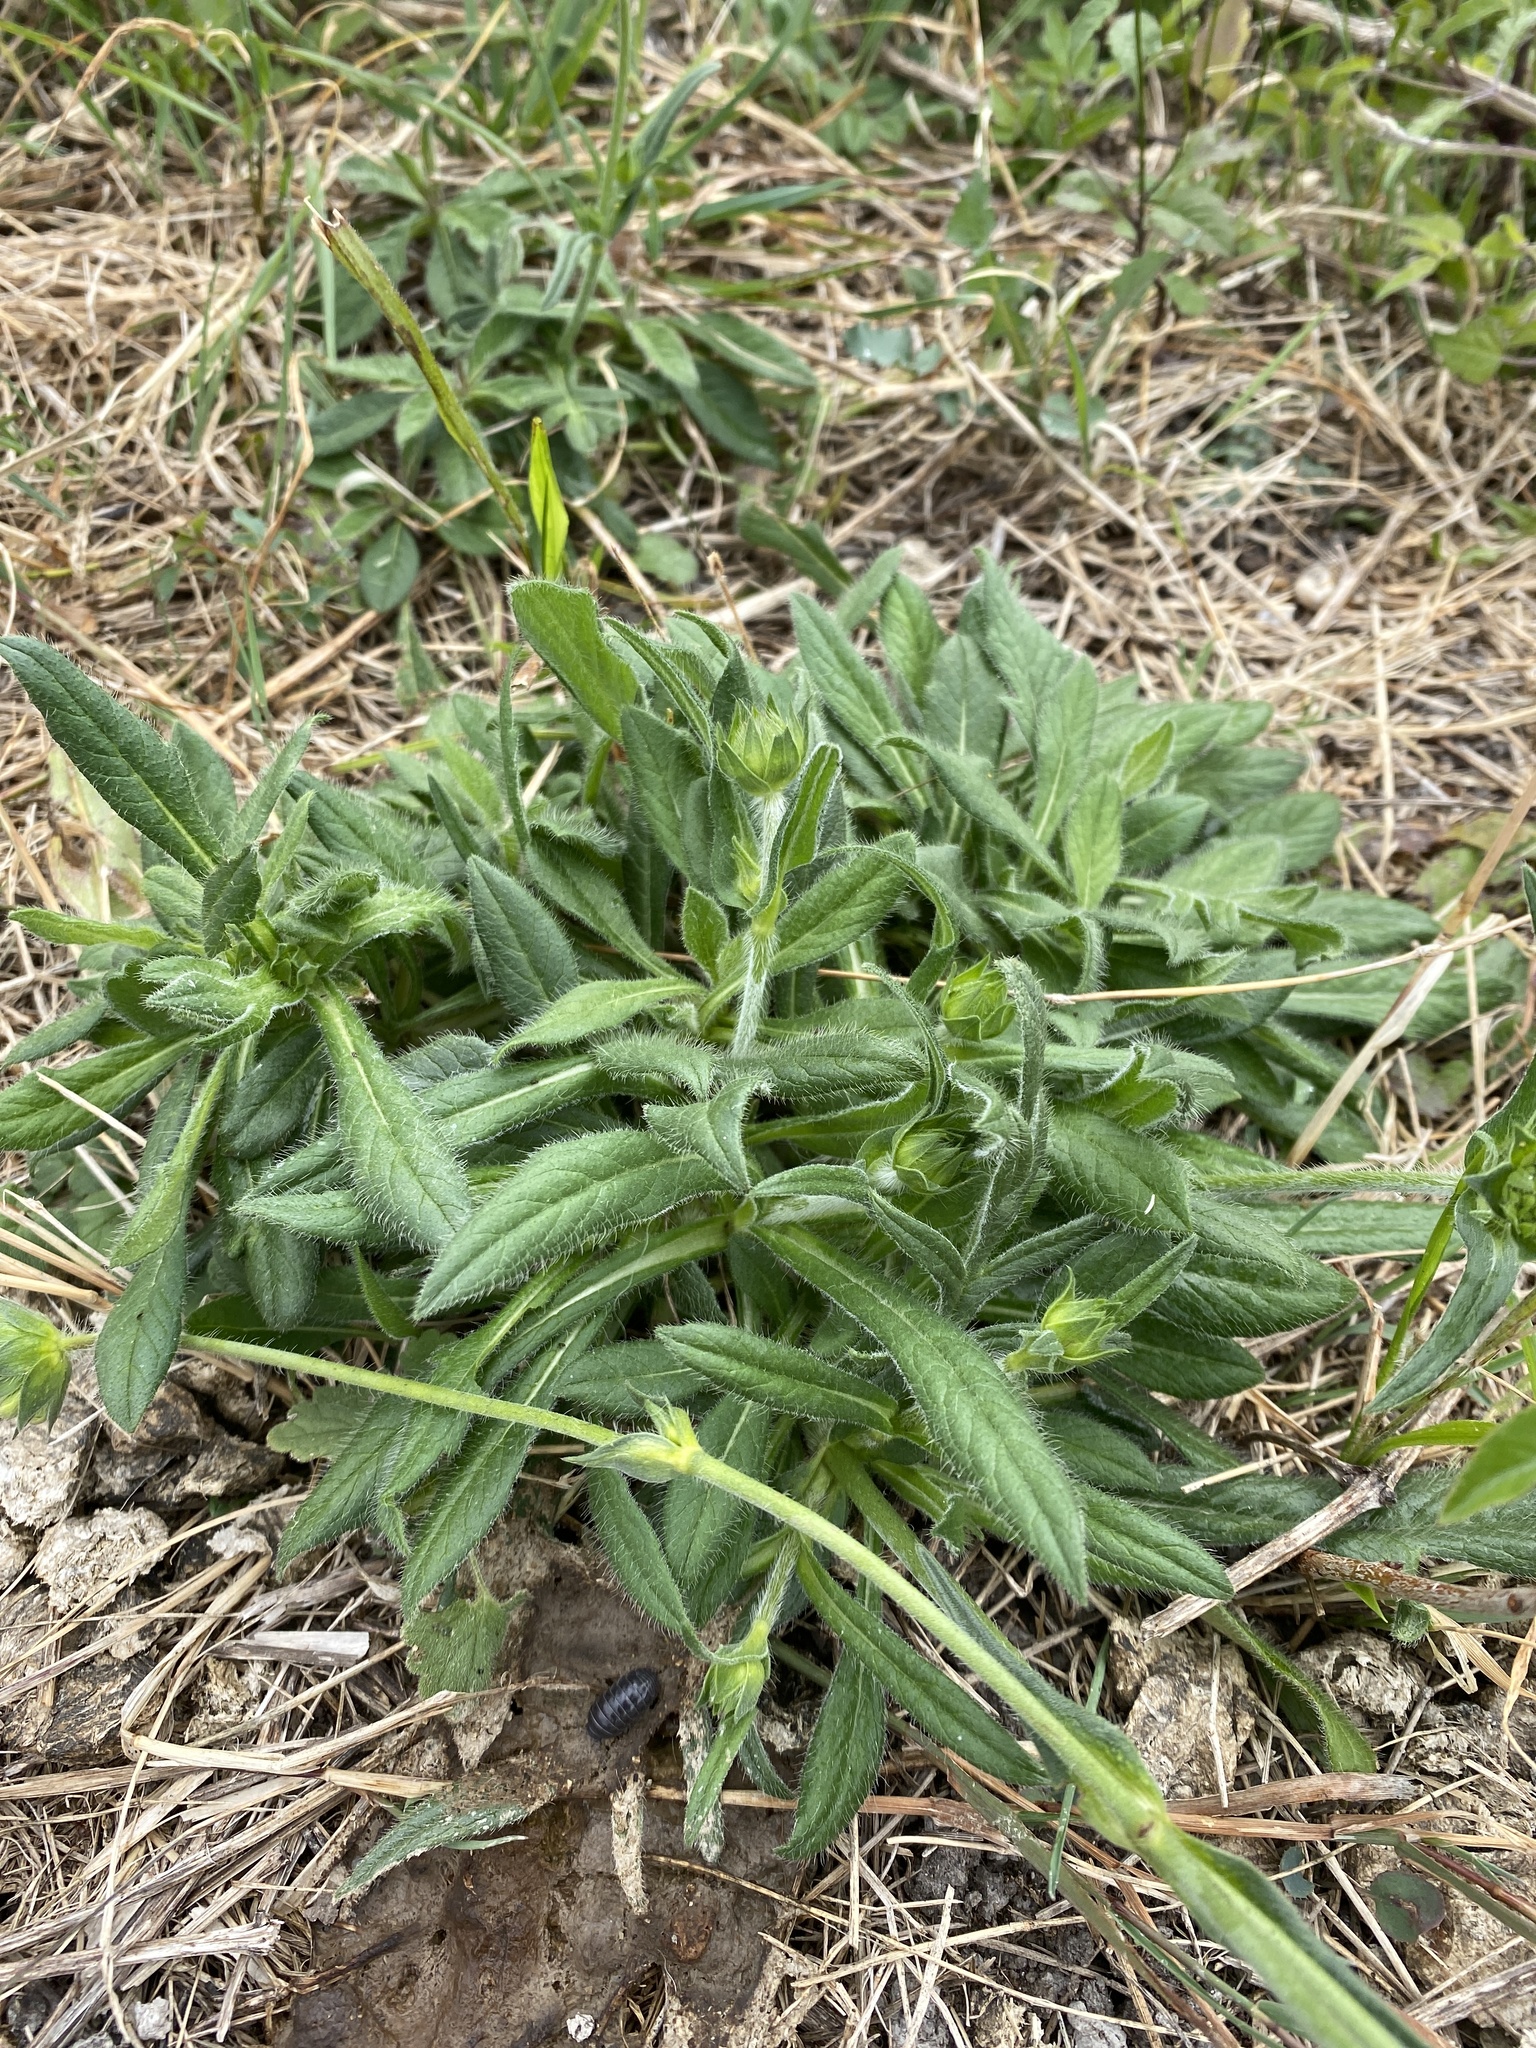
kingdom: Plantae
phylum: Tracheophyta
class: Magnoliopsida
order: Dipsacales
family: Caprifoliaceae
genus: Knautia
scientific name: Knautia arvensis
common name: Field scabiosa
